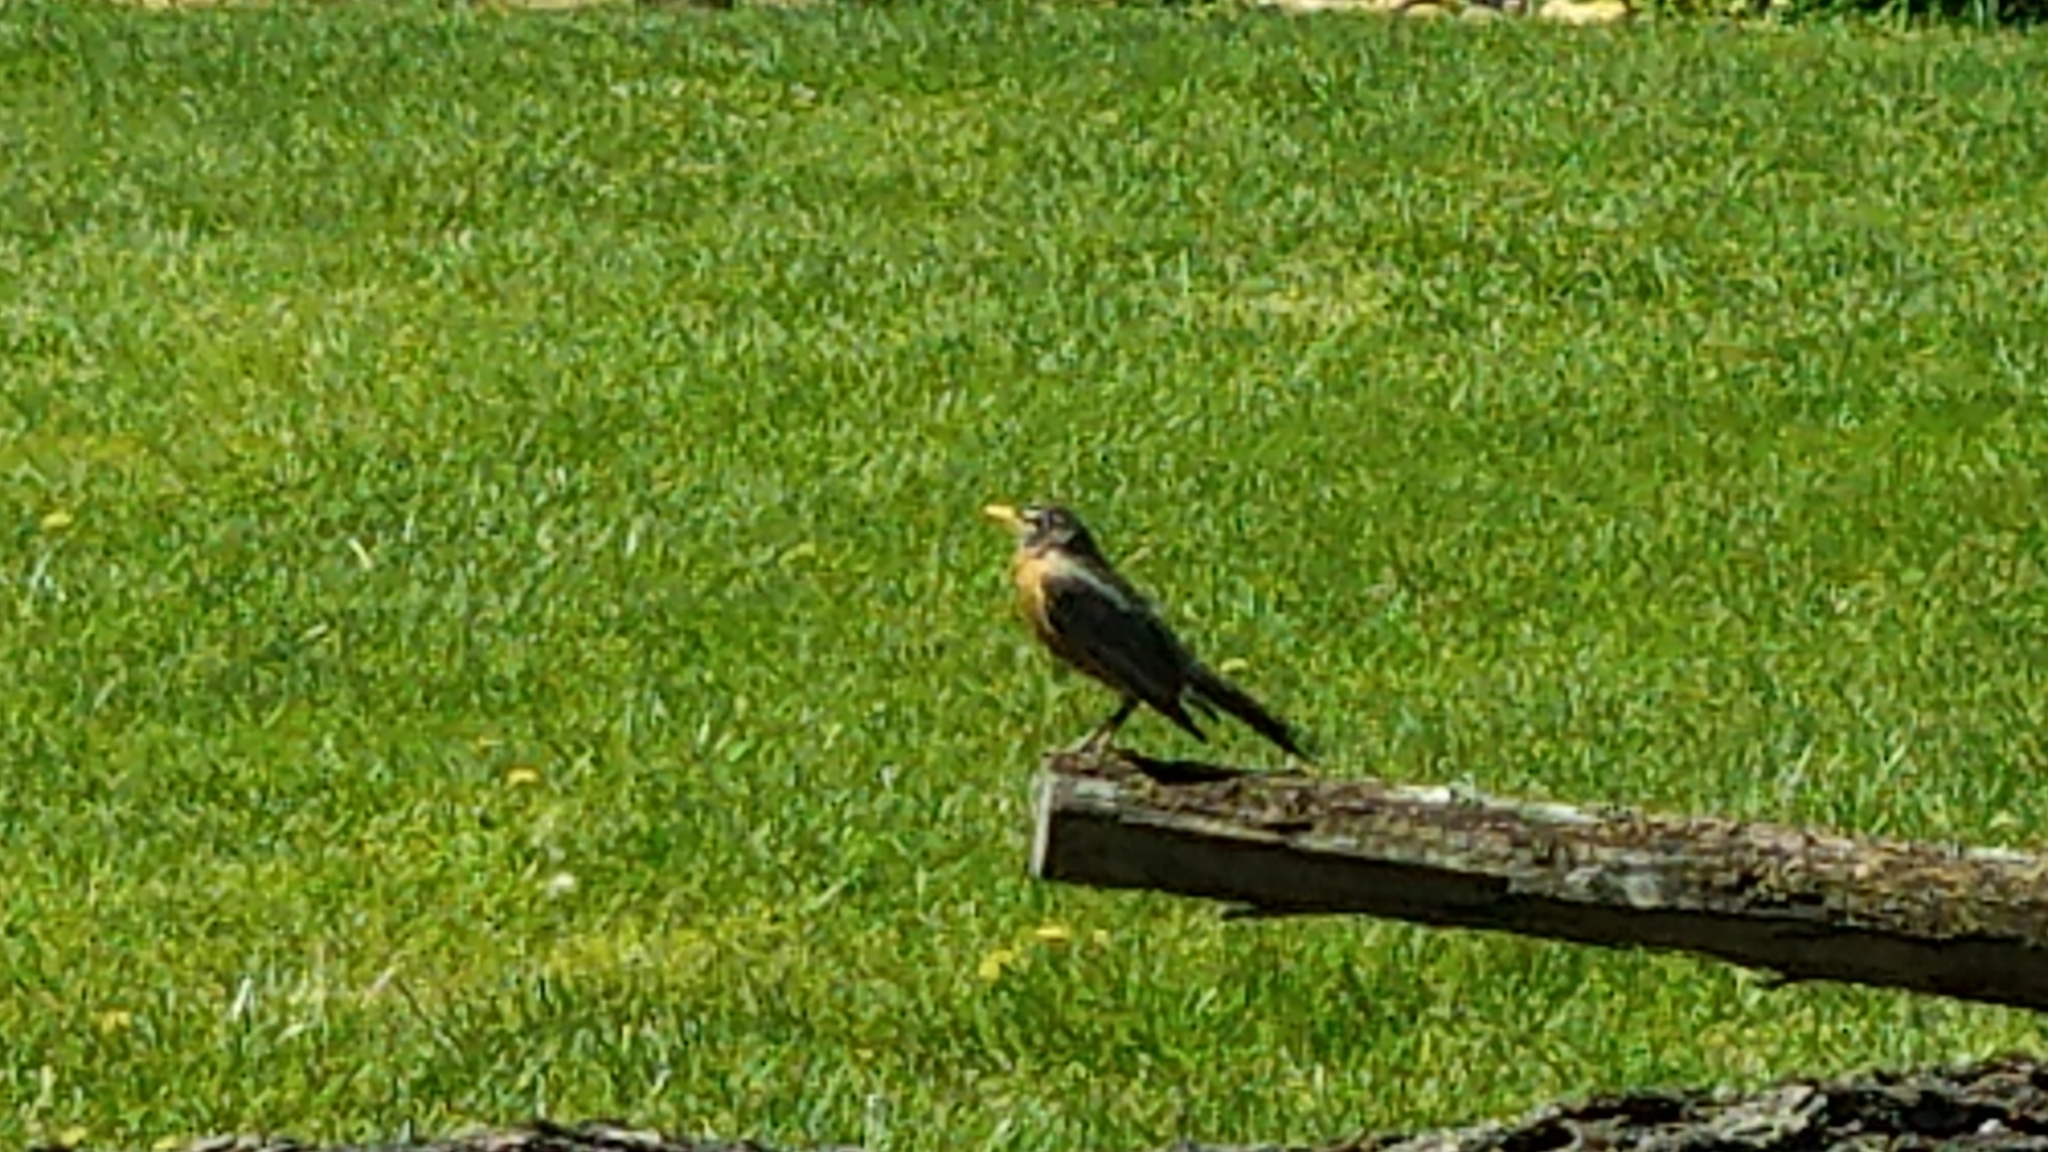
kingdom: Animalia
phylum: Chordata
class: Aves
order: Passeriformes
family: Turdidae
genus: Turdus
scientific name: Turdus migratorius
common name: American robin
